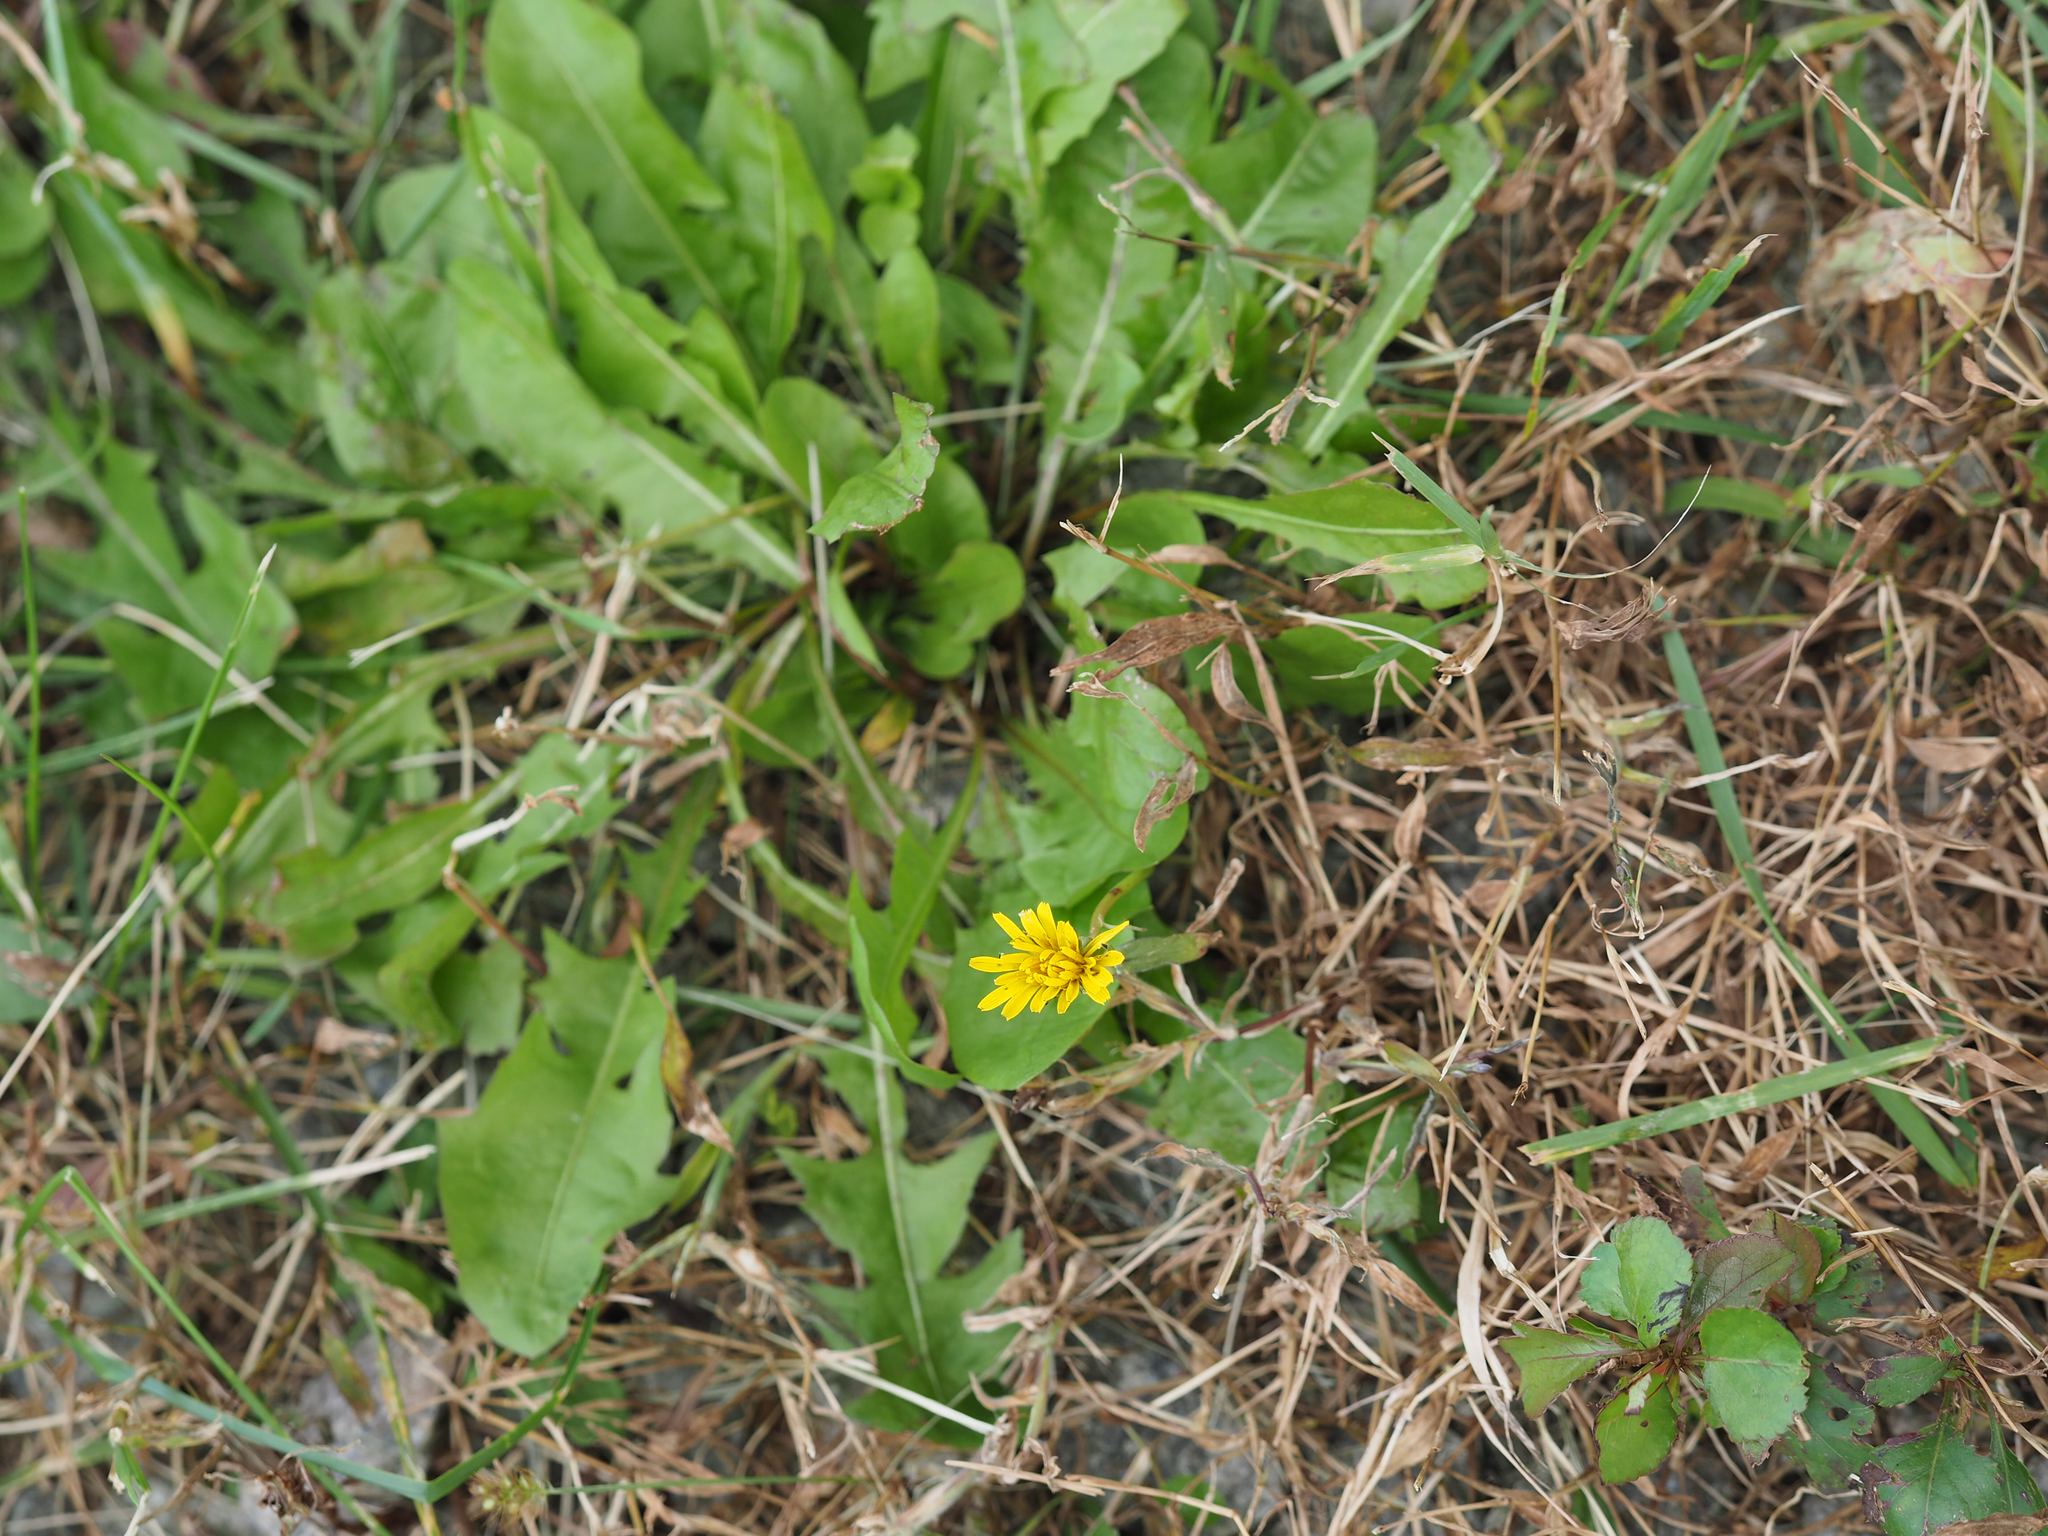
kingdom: Plantae
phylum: Tracheophyta
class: Magnoliopsida
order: Asterales
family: Asteraceae
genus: Taraxacum
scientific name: Taraxacum officinale
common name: Common dandelion
